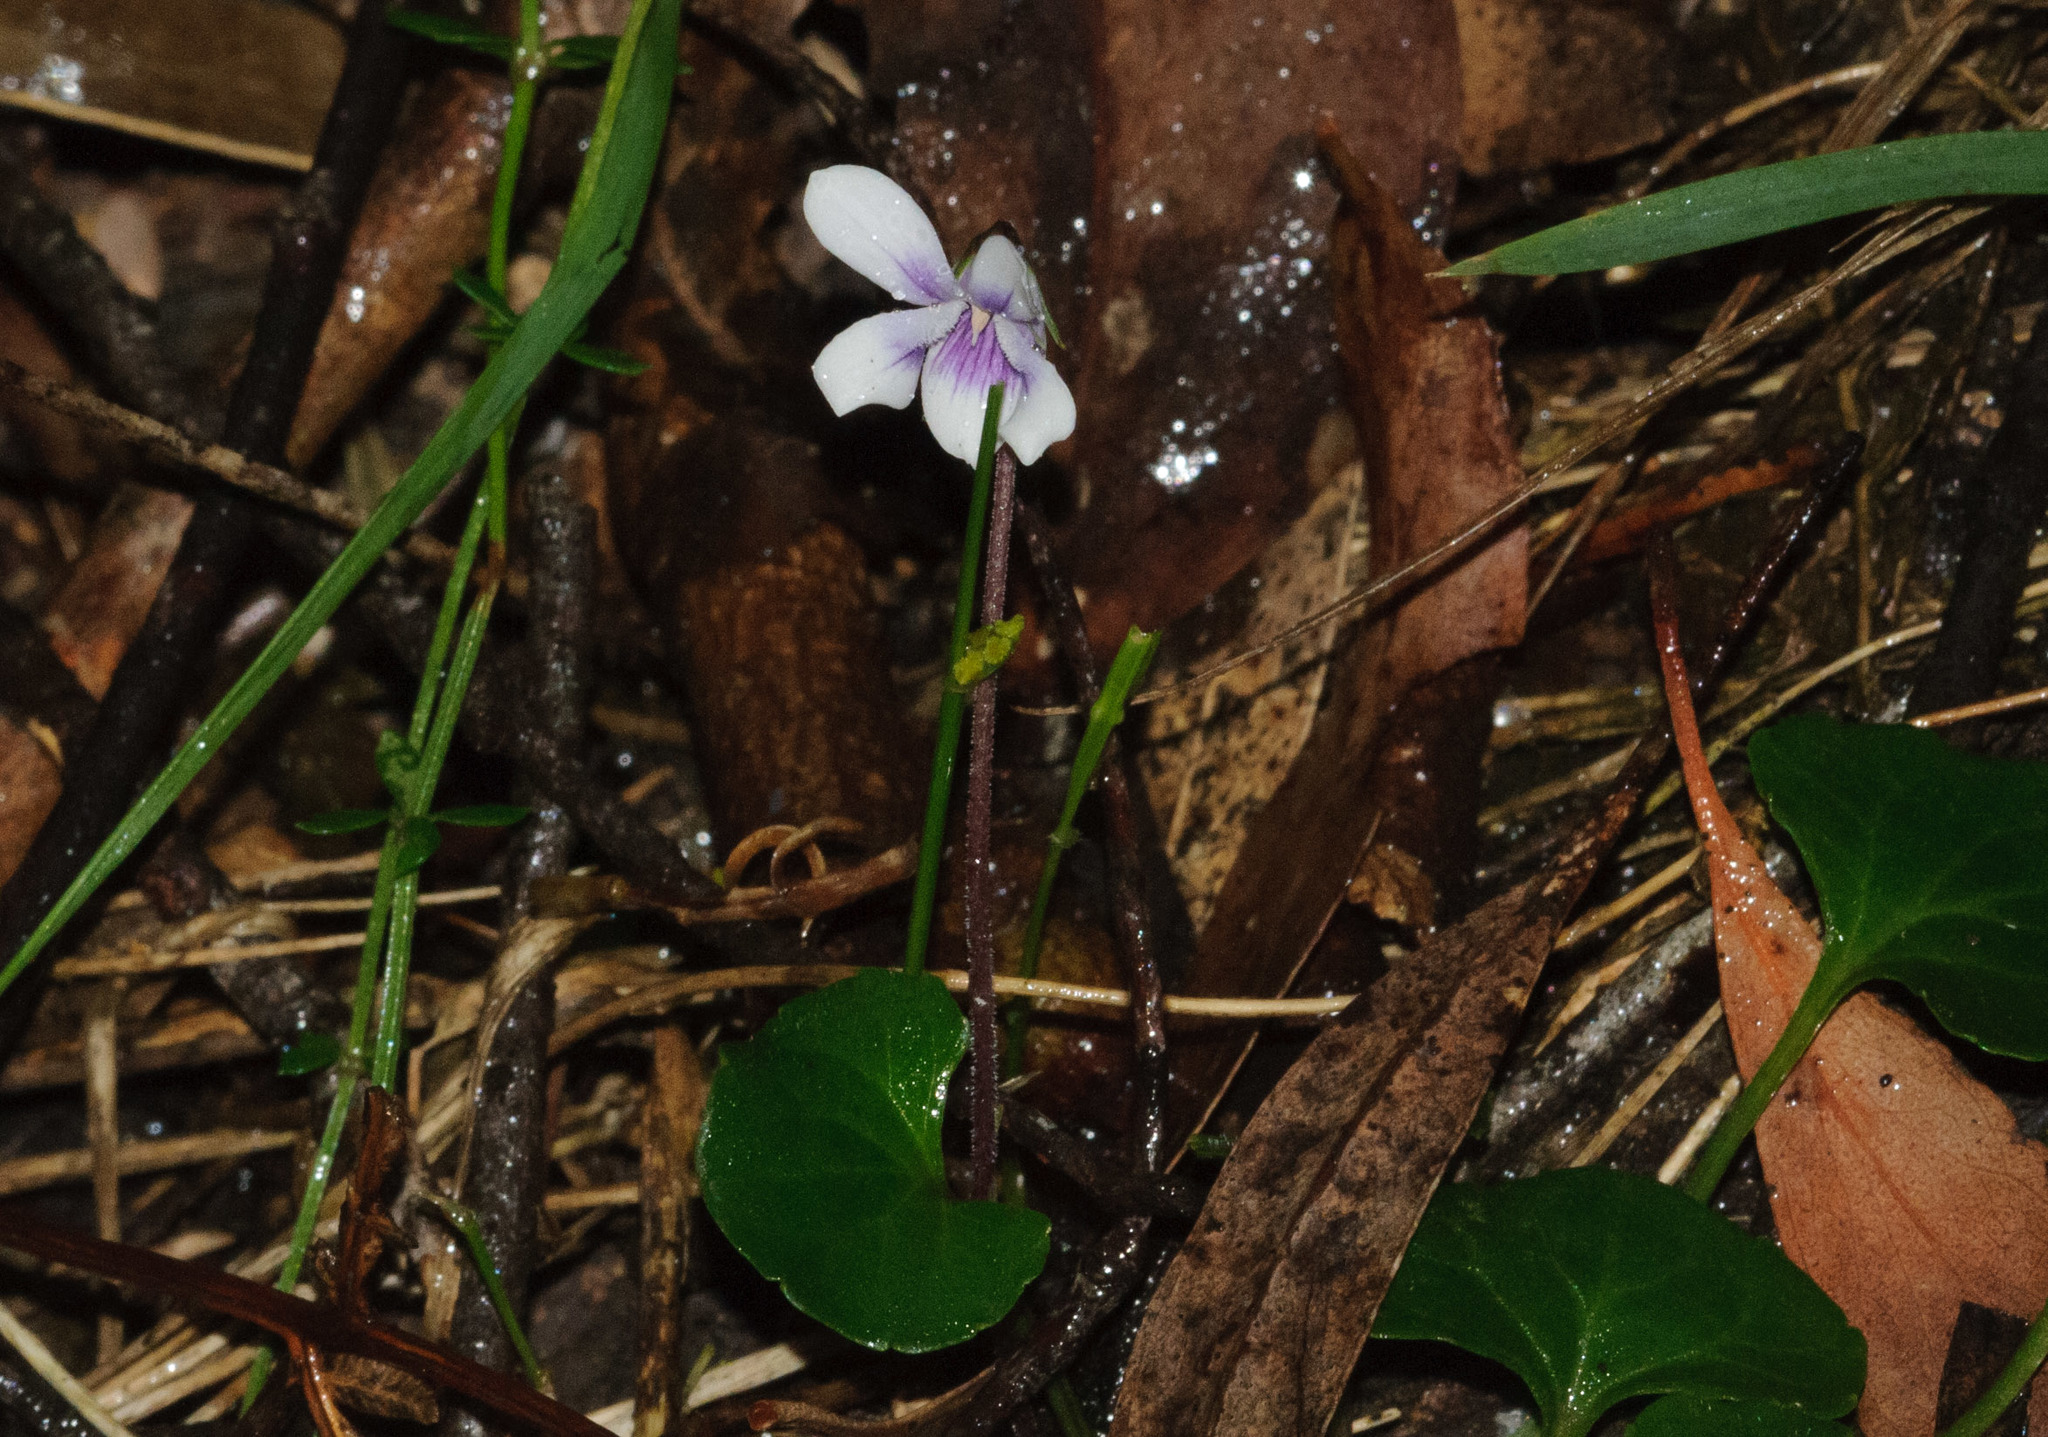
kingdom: Plantae
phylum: Tracheophyta
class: Magnoliopsida
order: Malpighiales
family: Violaceae
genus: Viola
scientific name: Viola hederacea
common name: Australian violet
